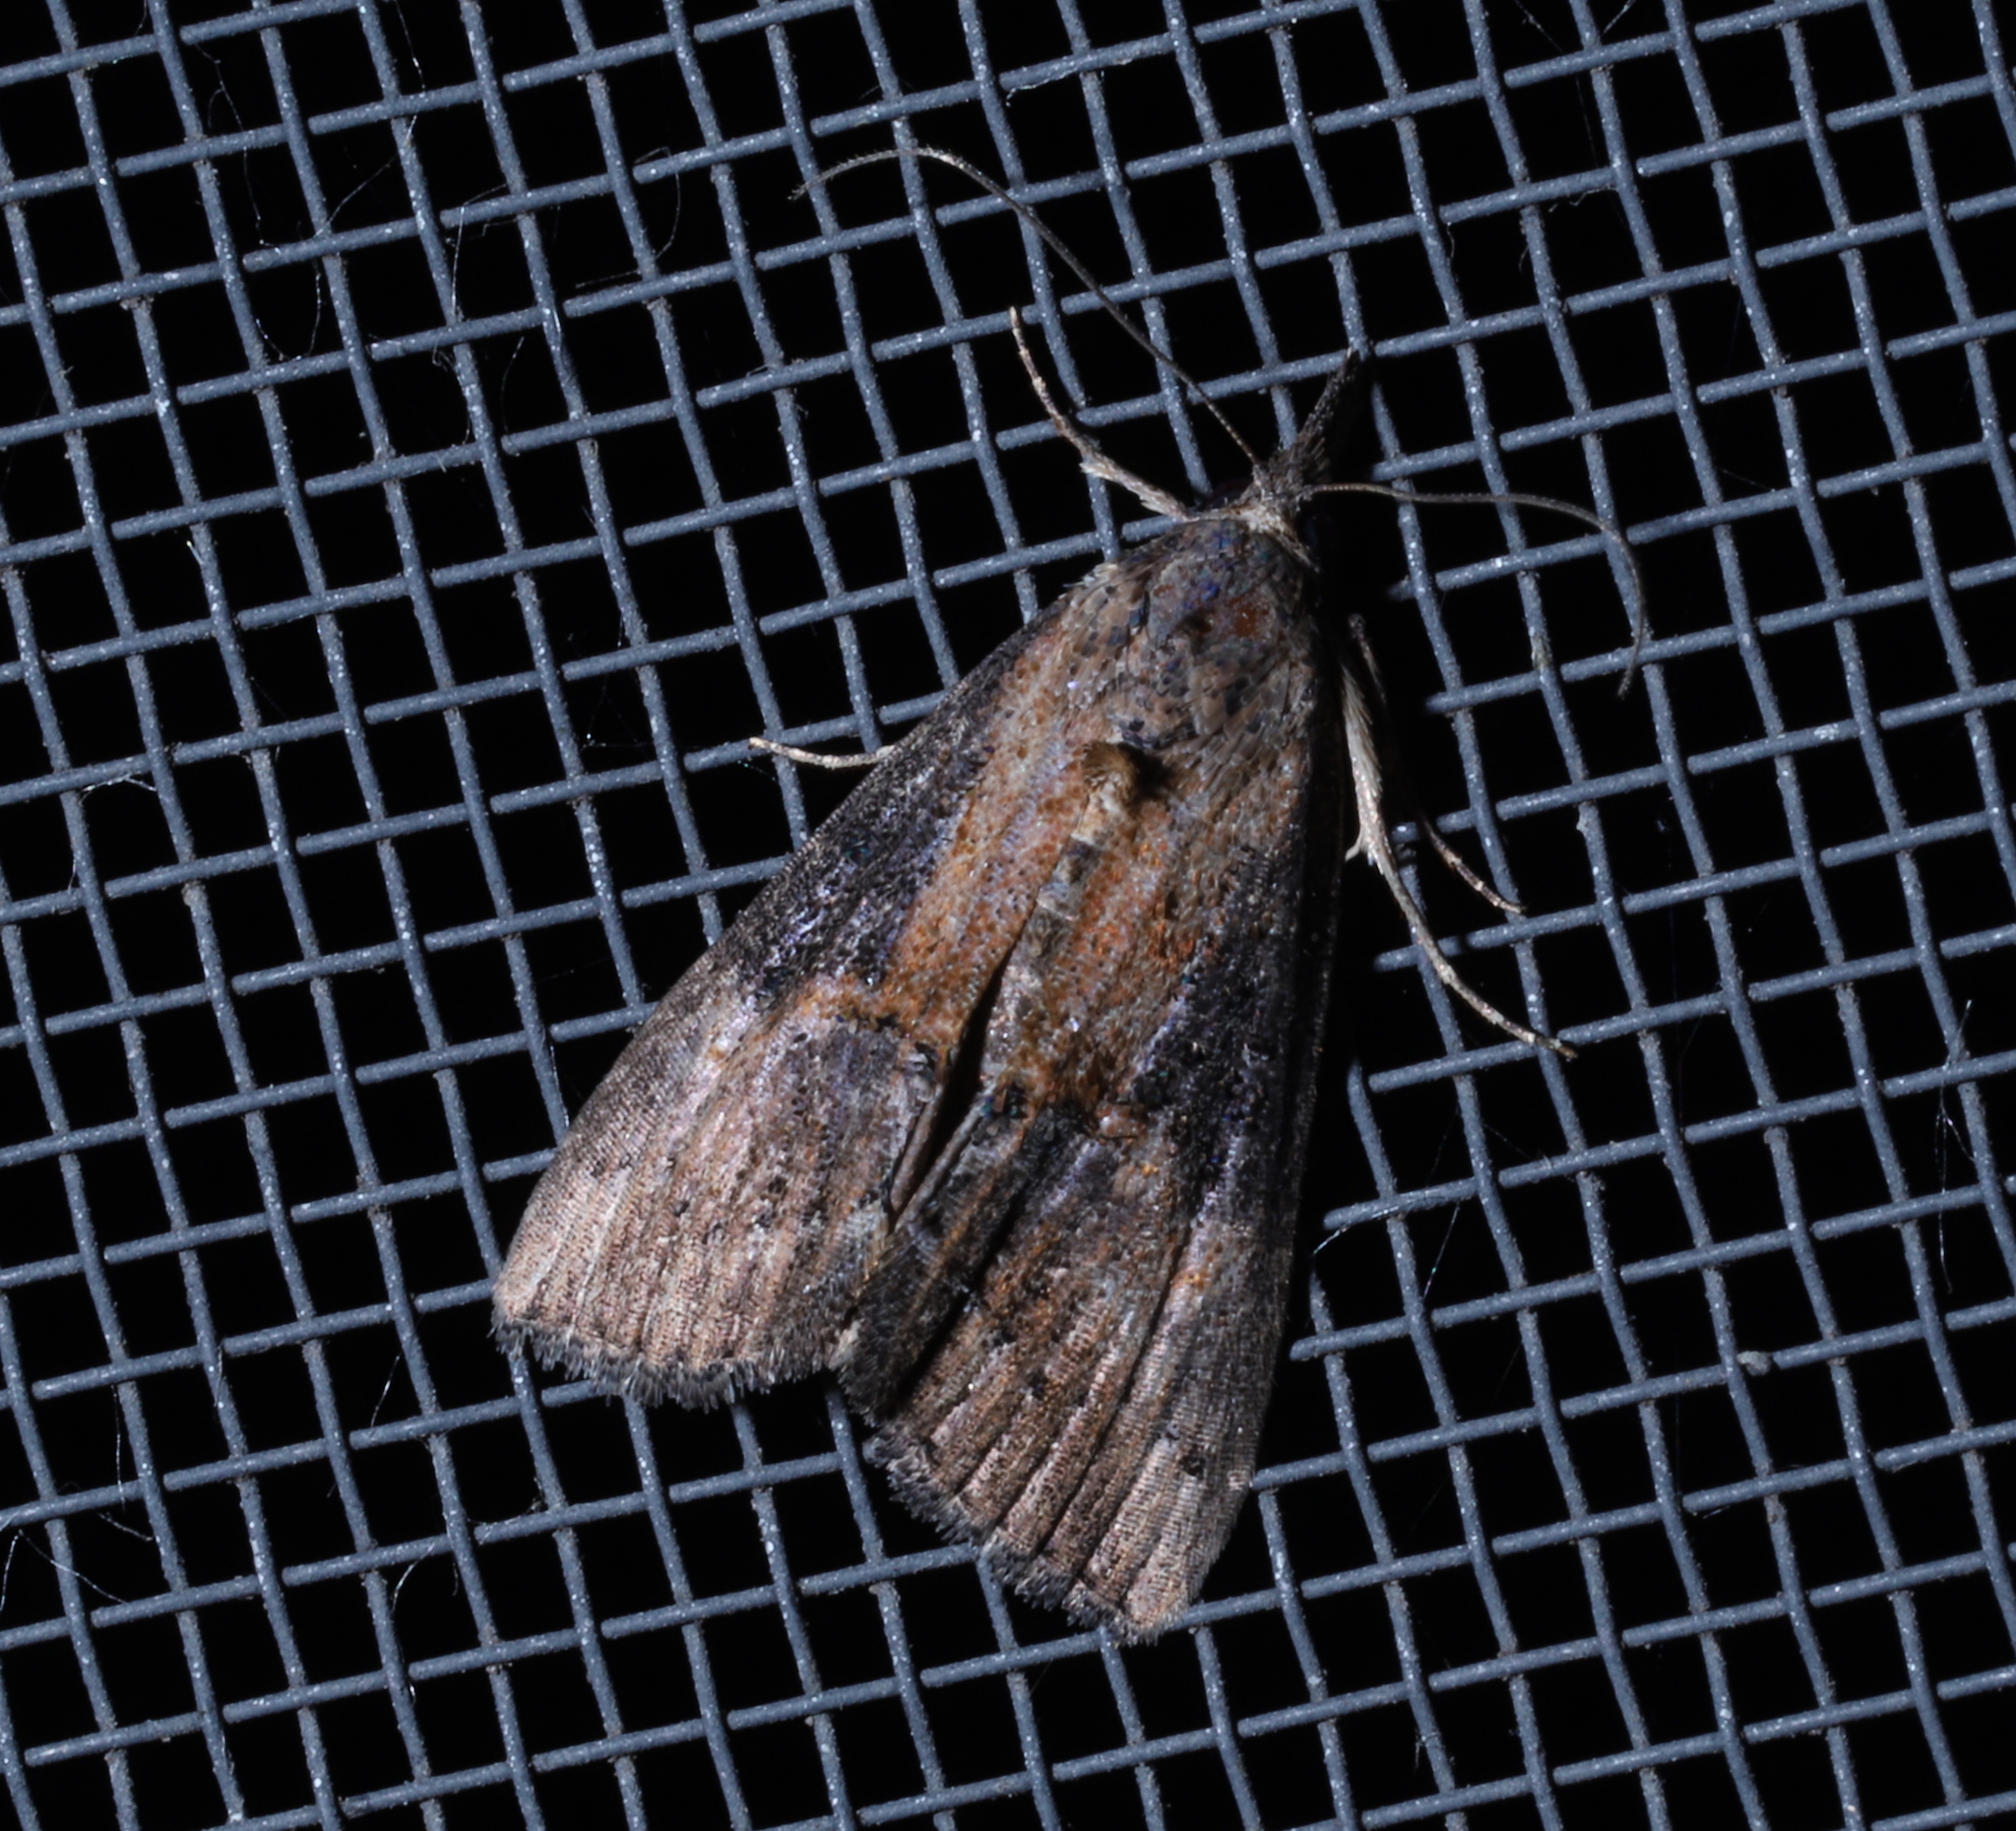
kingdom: Animalia
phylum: Arthropoda
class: Insecta
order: Lepidoptera
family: Erebidae
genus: Hypena
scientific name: Hypena scabra
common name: Green cloverworm
